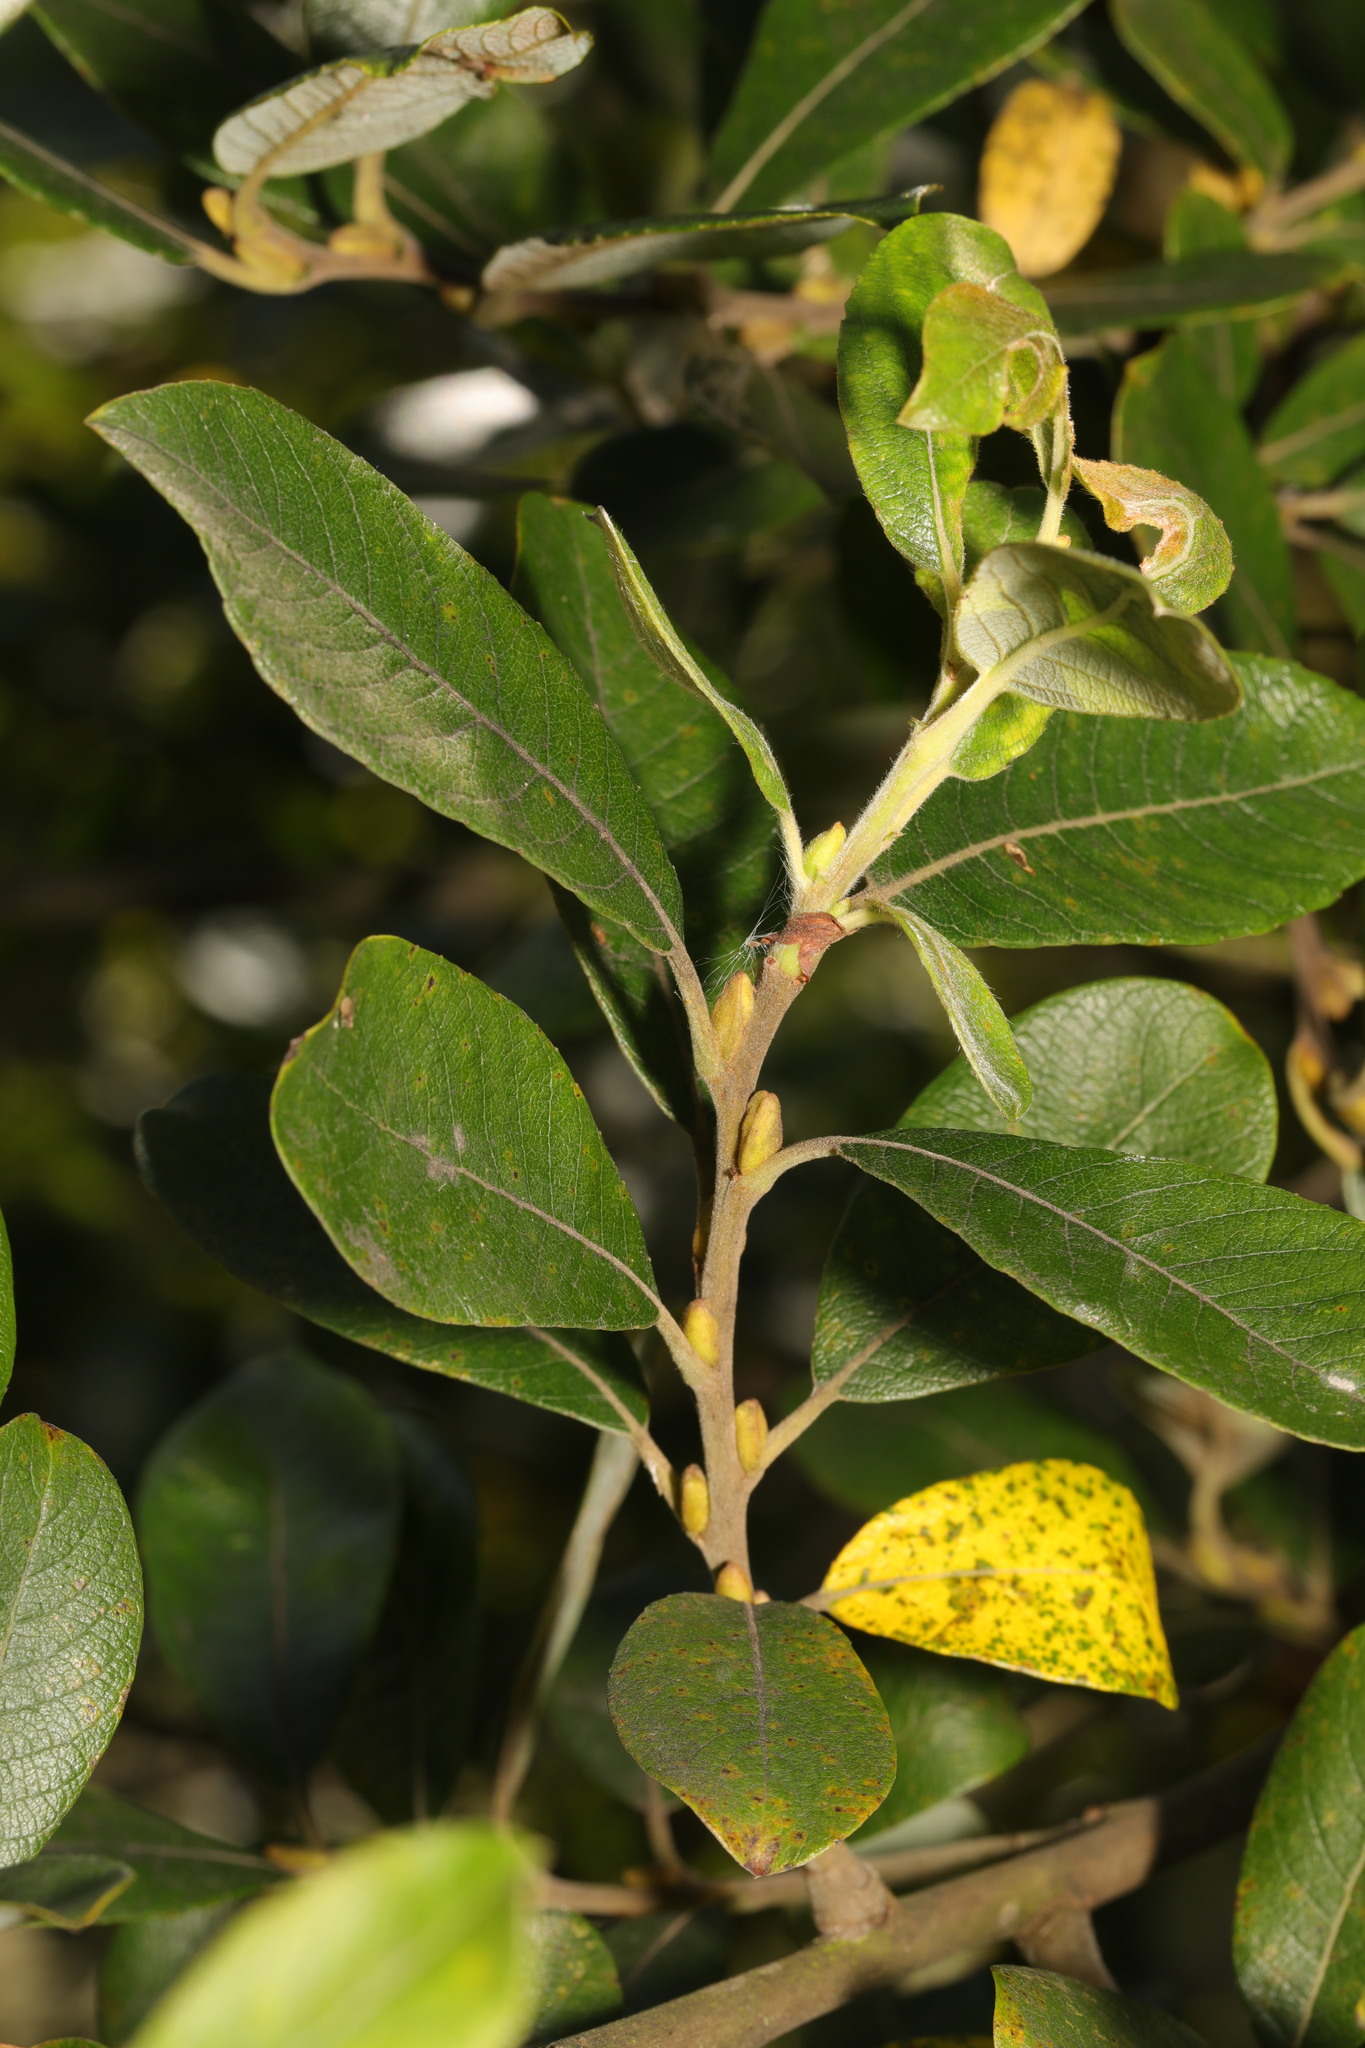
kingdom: Plantae
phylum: Tracheophyta
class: Magnoliopsida
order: Malpighiales
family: Salicaceae
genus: Salix
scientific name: Salix cinerea
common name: Common sallow
